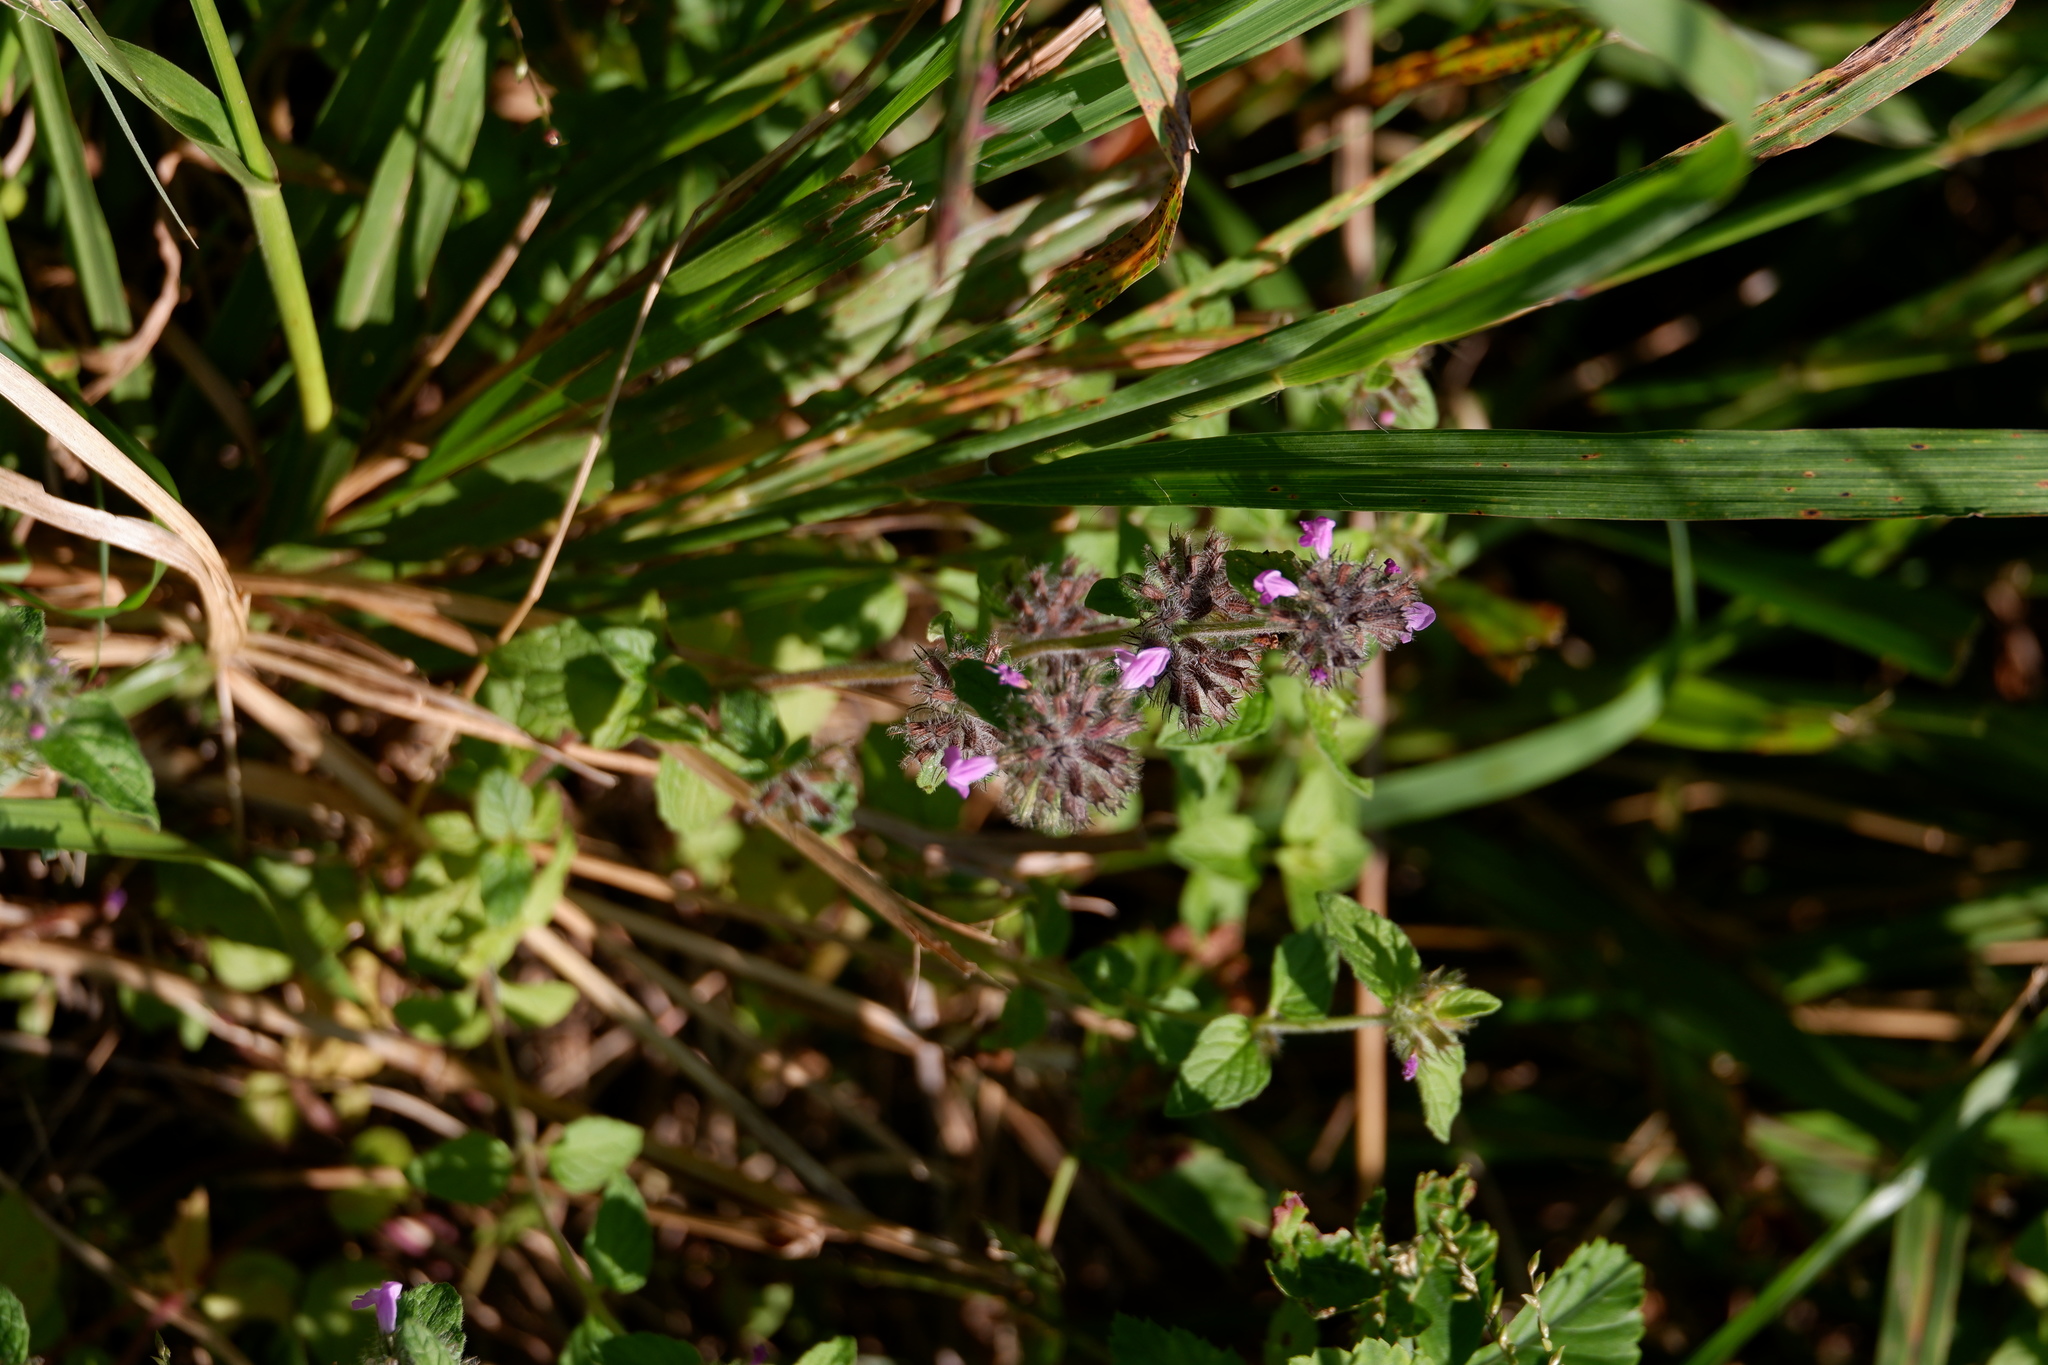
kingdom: Plantae
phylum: Tracheophyta
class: Magnoliopsida
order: Lamiales
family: Lamiaceae
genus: Clinopodium
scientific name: Clinopodium vulgare
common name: Wild basil
